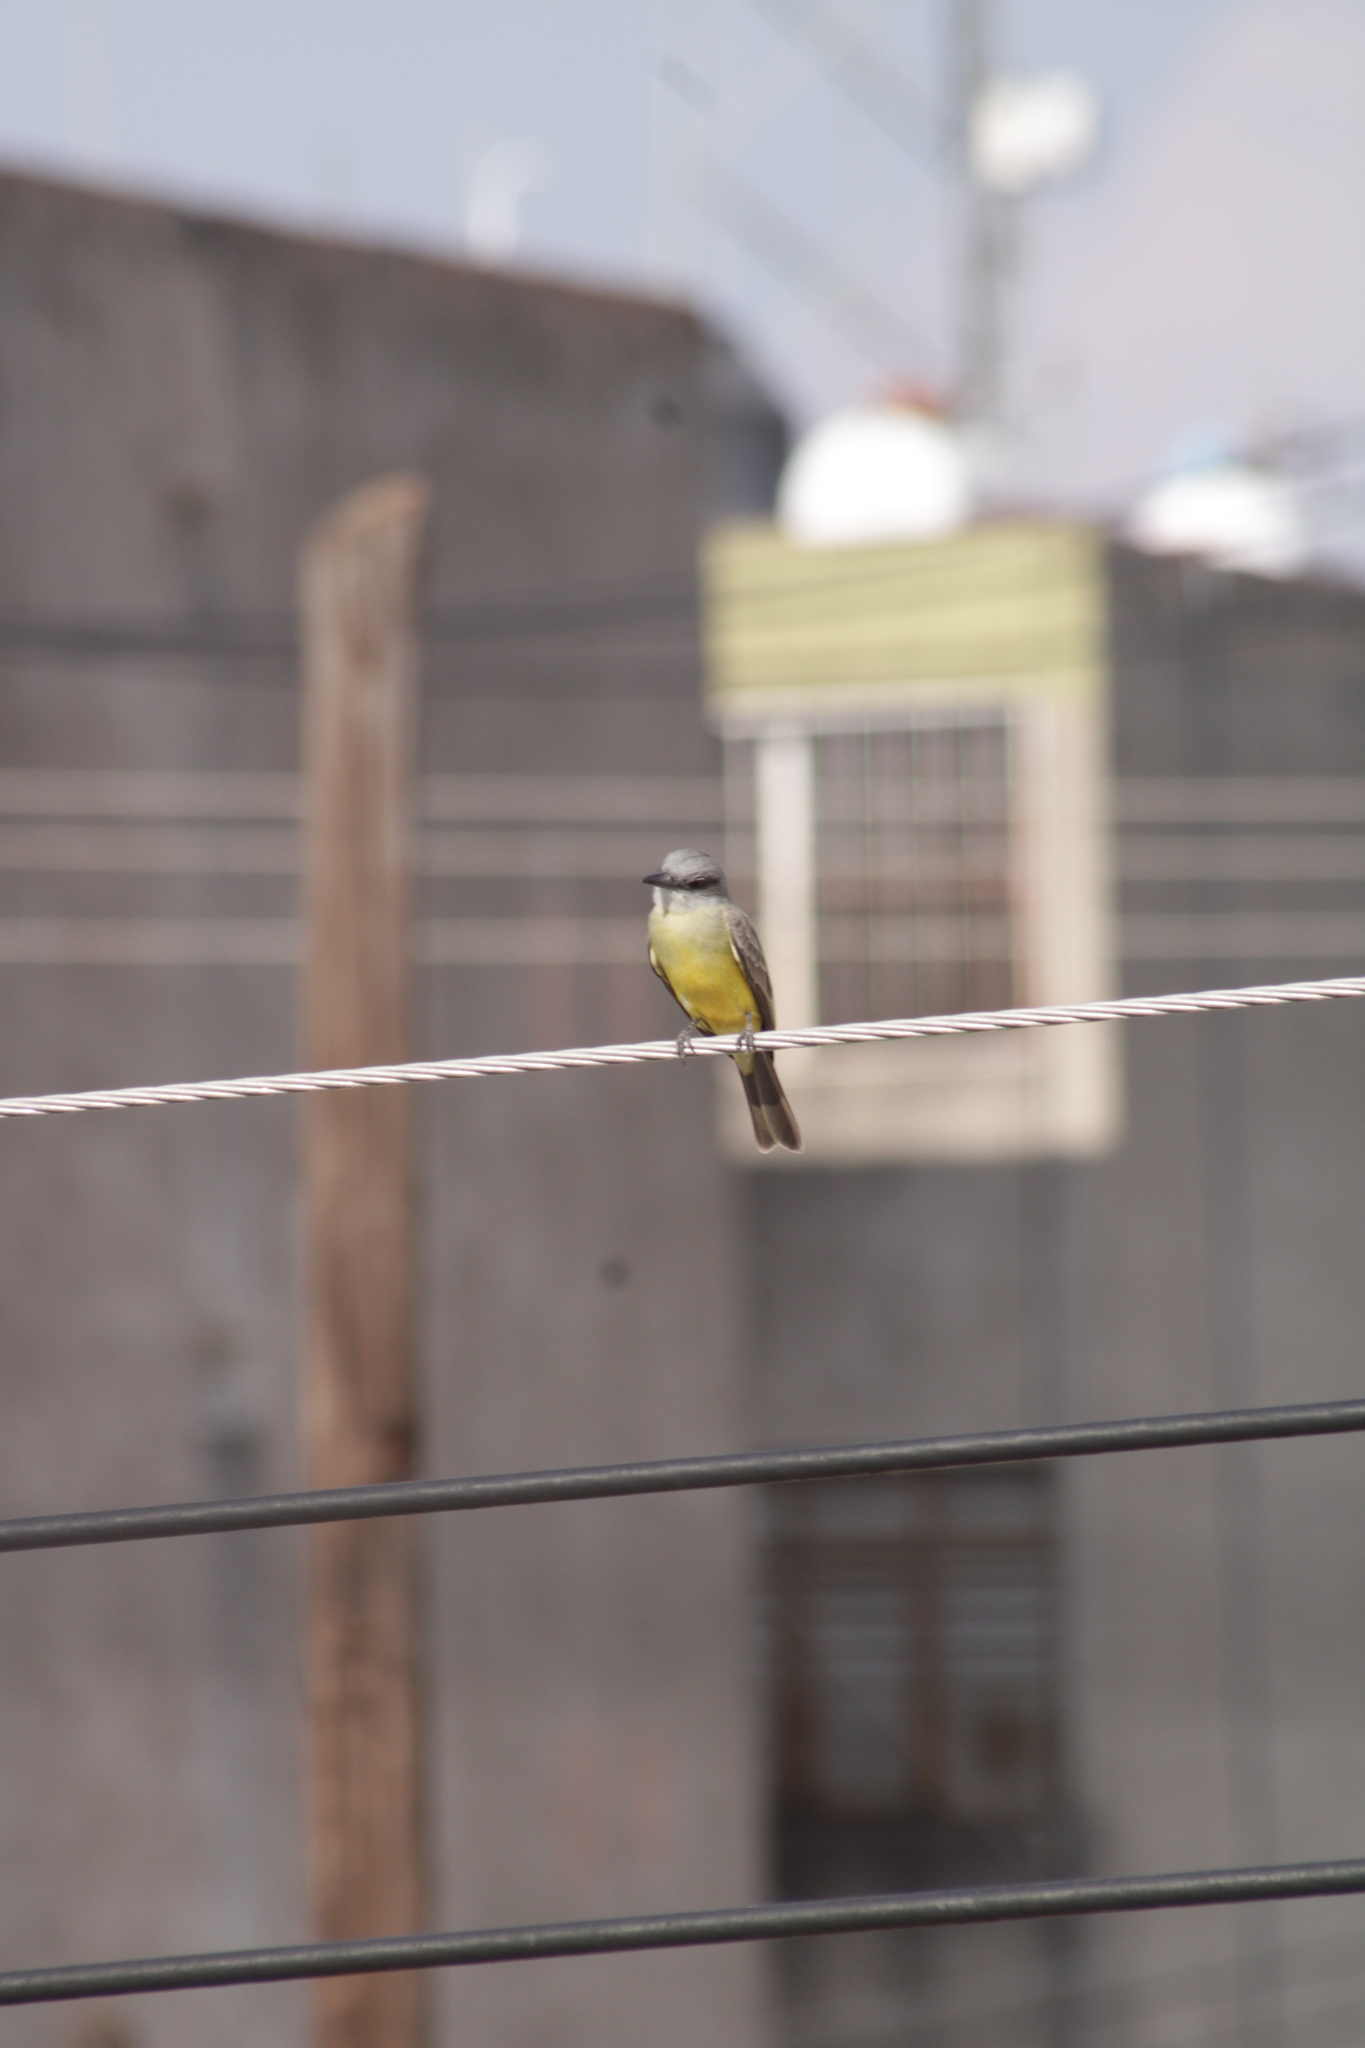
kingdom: Animalia
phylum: Chordata
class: Aves
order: Passeriformes
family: Tyrannidae
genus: Tyrannus
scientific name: Tyrannus melancholicus
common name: Tropical kingbird
